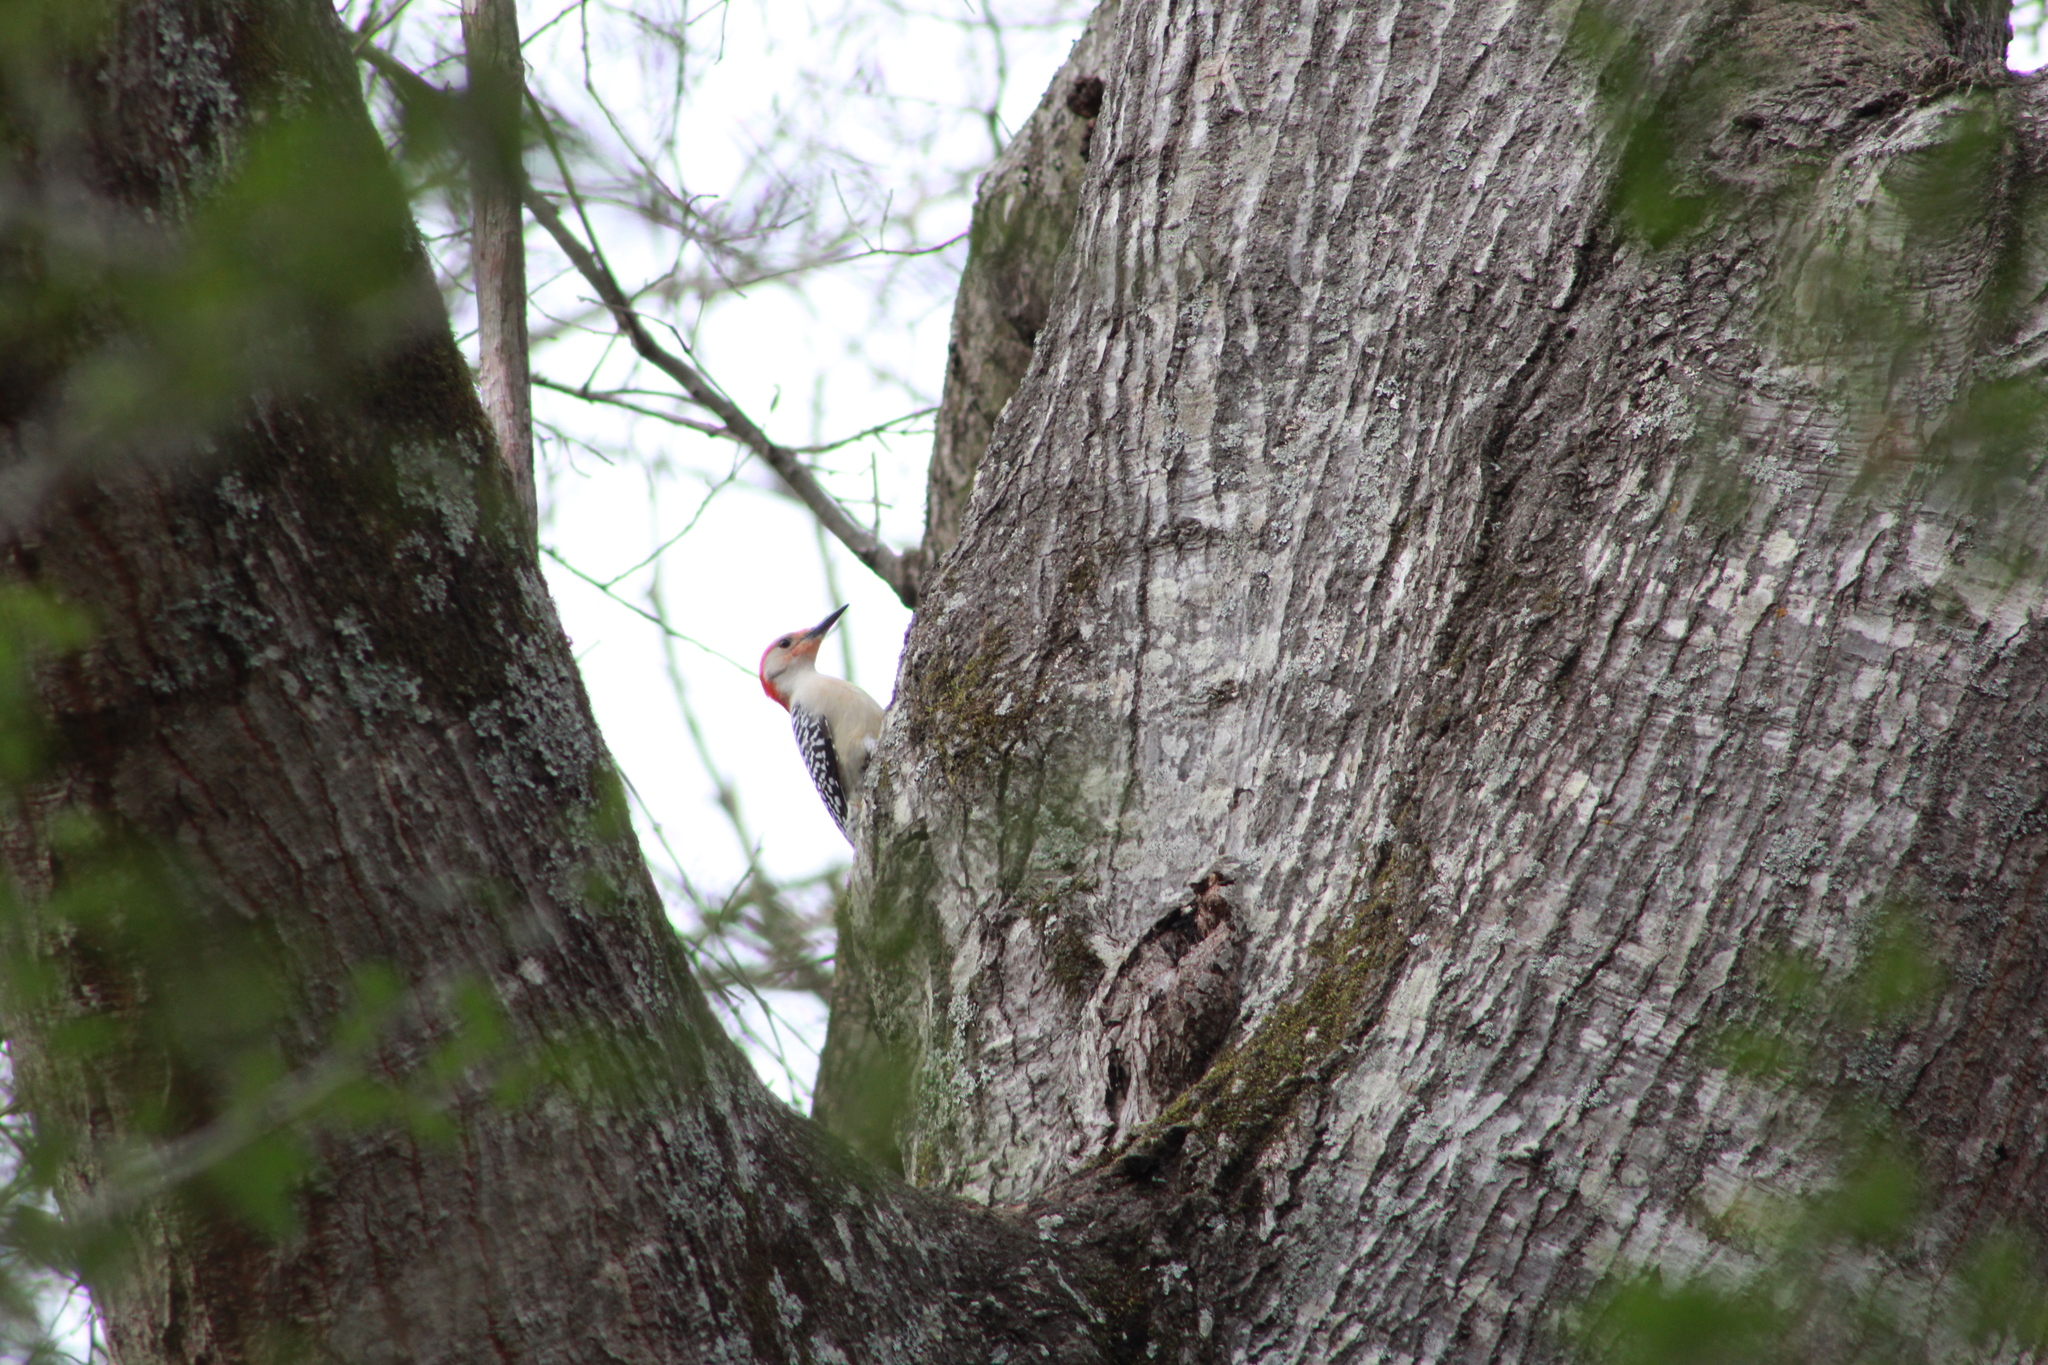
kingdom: Animalia
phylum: Chordata
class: Aves
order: Piciformes
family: Picidae
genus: Melanerpes
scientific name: Melanerpes carolinus
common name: Red-bellied woodpecker
